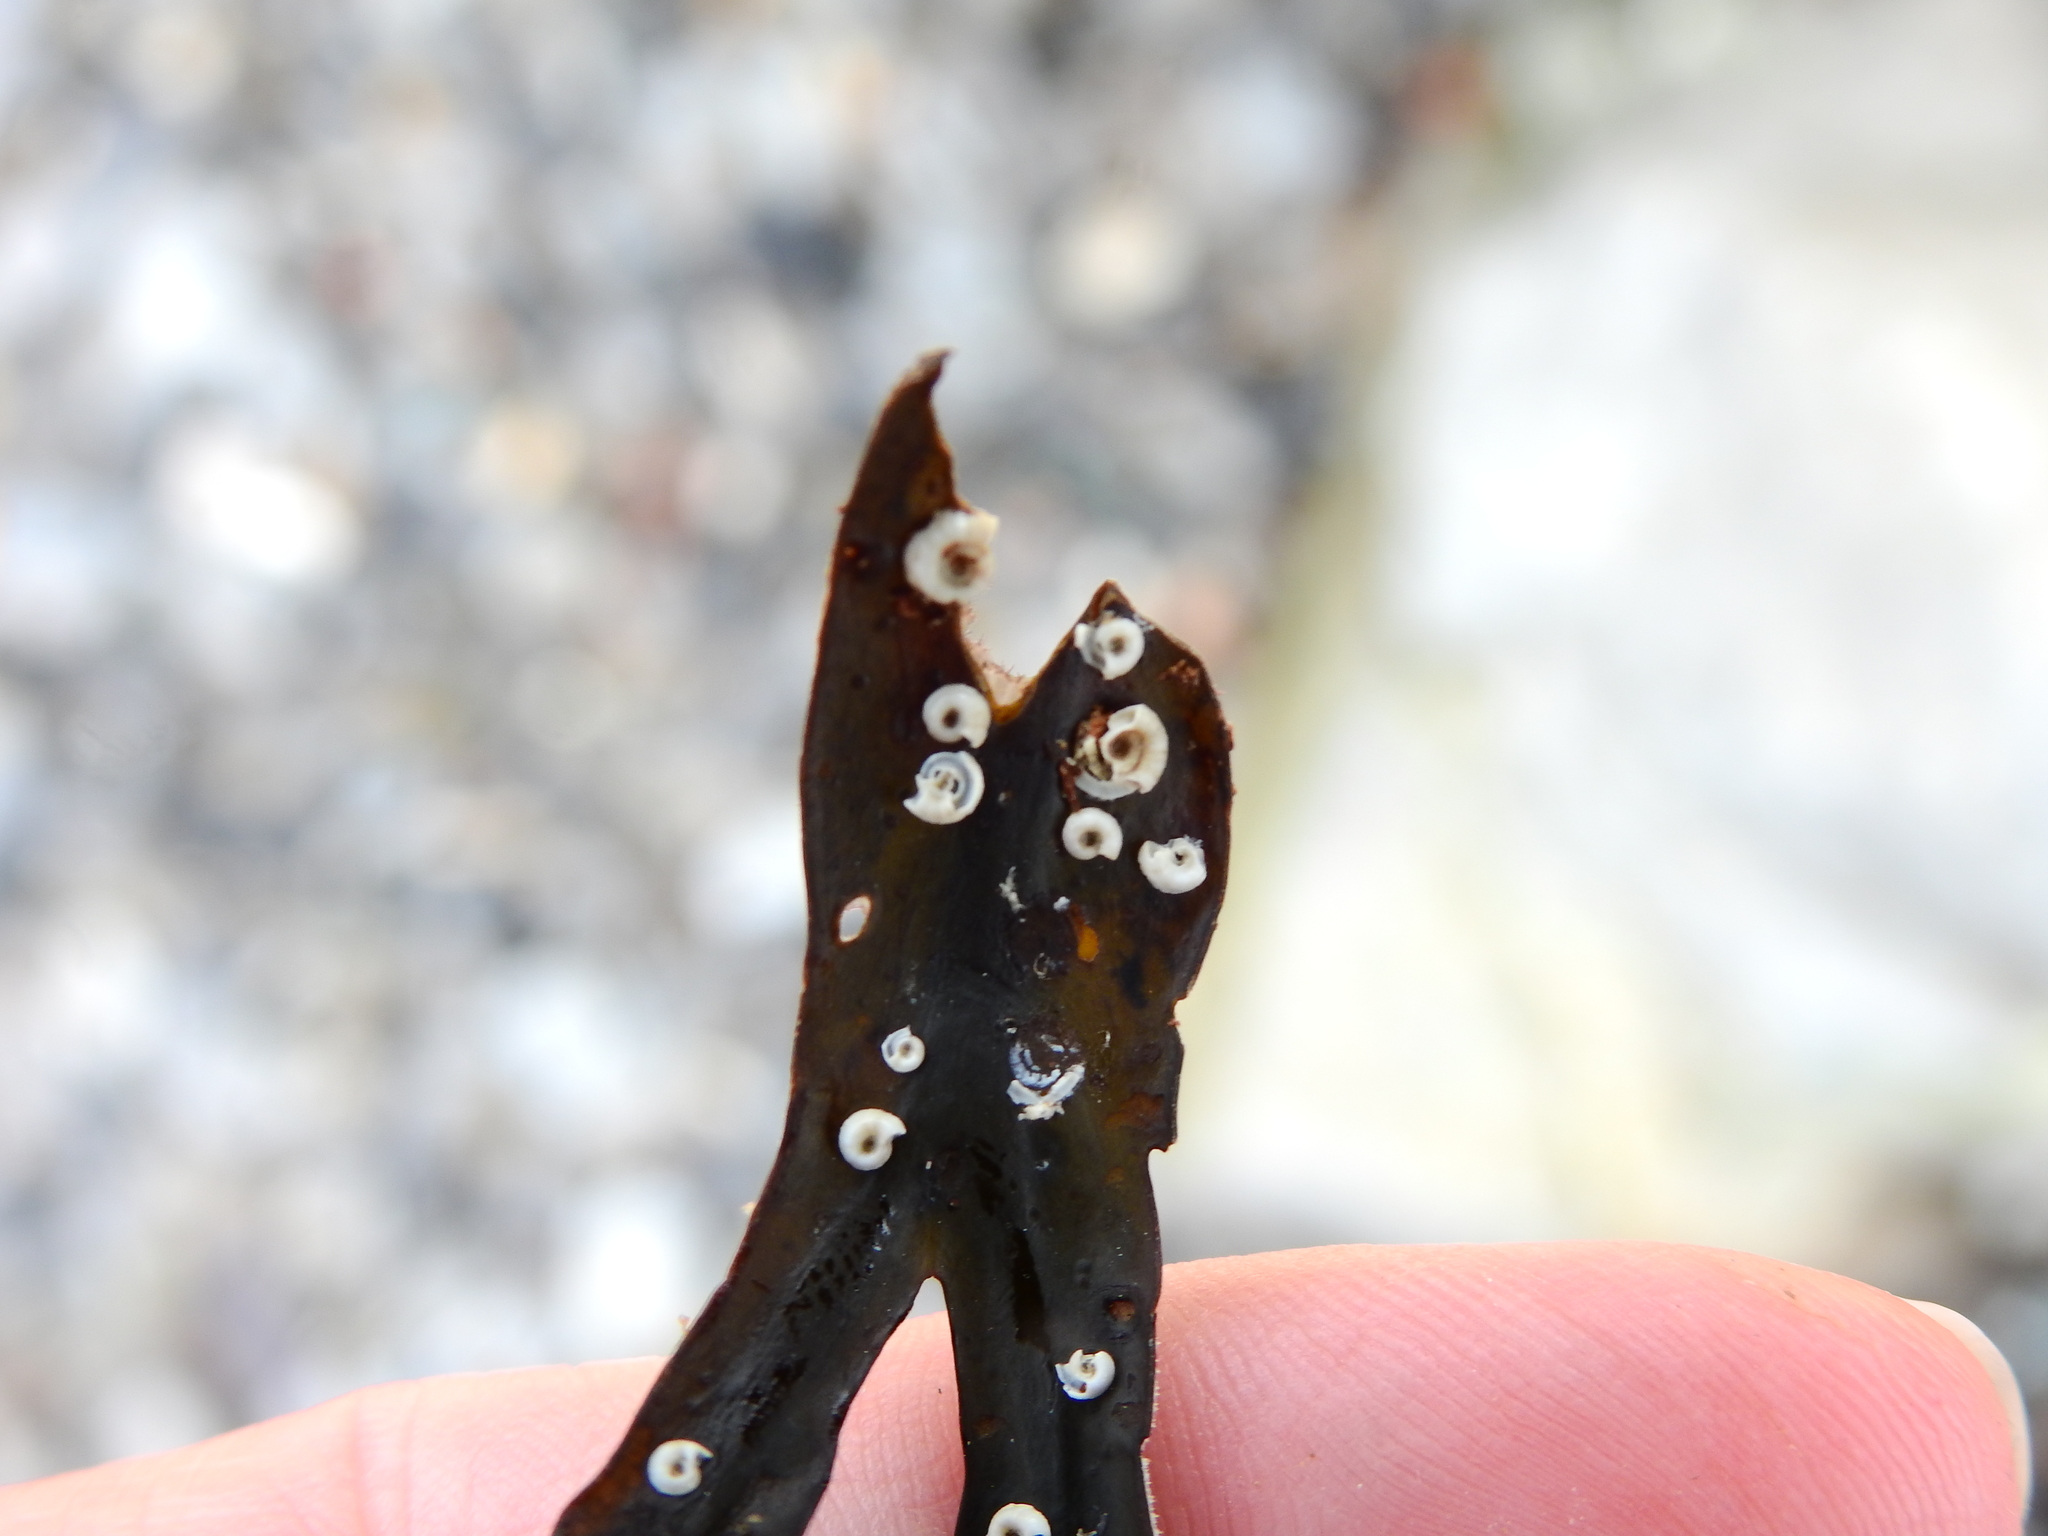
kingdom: Animalia
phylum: Annelida
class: Polychaeta
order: Sabellida
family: Serpulidae
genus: Spirorbis
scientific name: Spirorbis spirorbis
